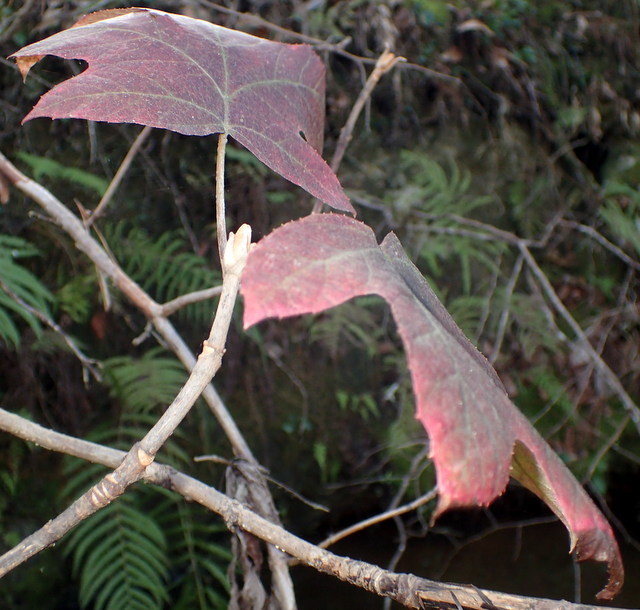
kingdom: Plantae
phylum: Tracheophyta
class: Magnoliopsida
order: Cornales
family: Hydrangeaceae
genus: Hydrangea
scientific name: Hydrangea quercifolia
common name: Oak-leaf hydrangea
